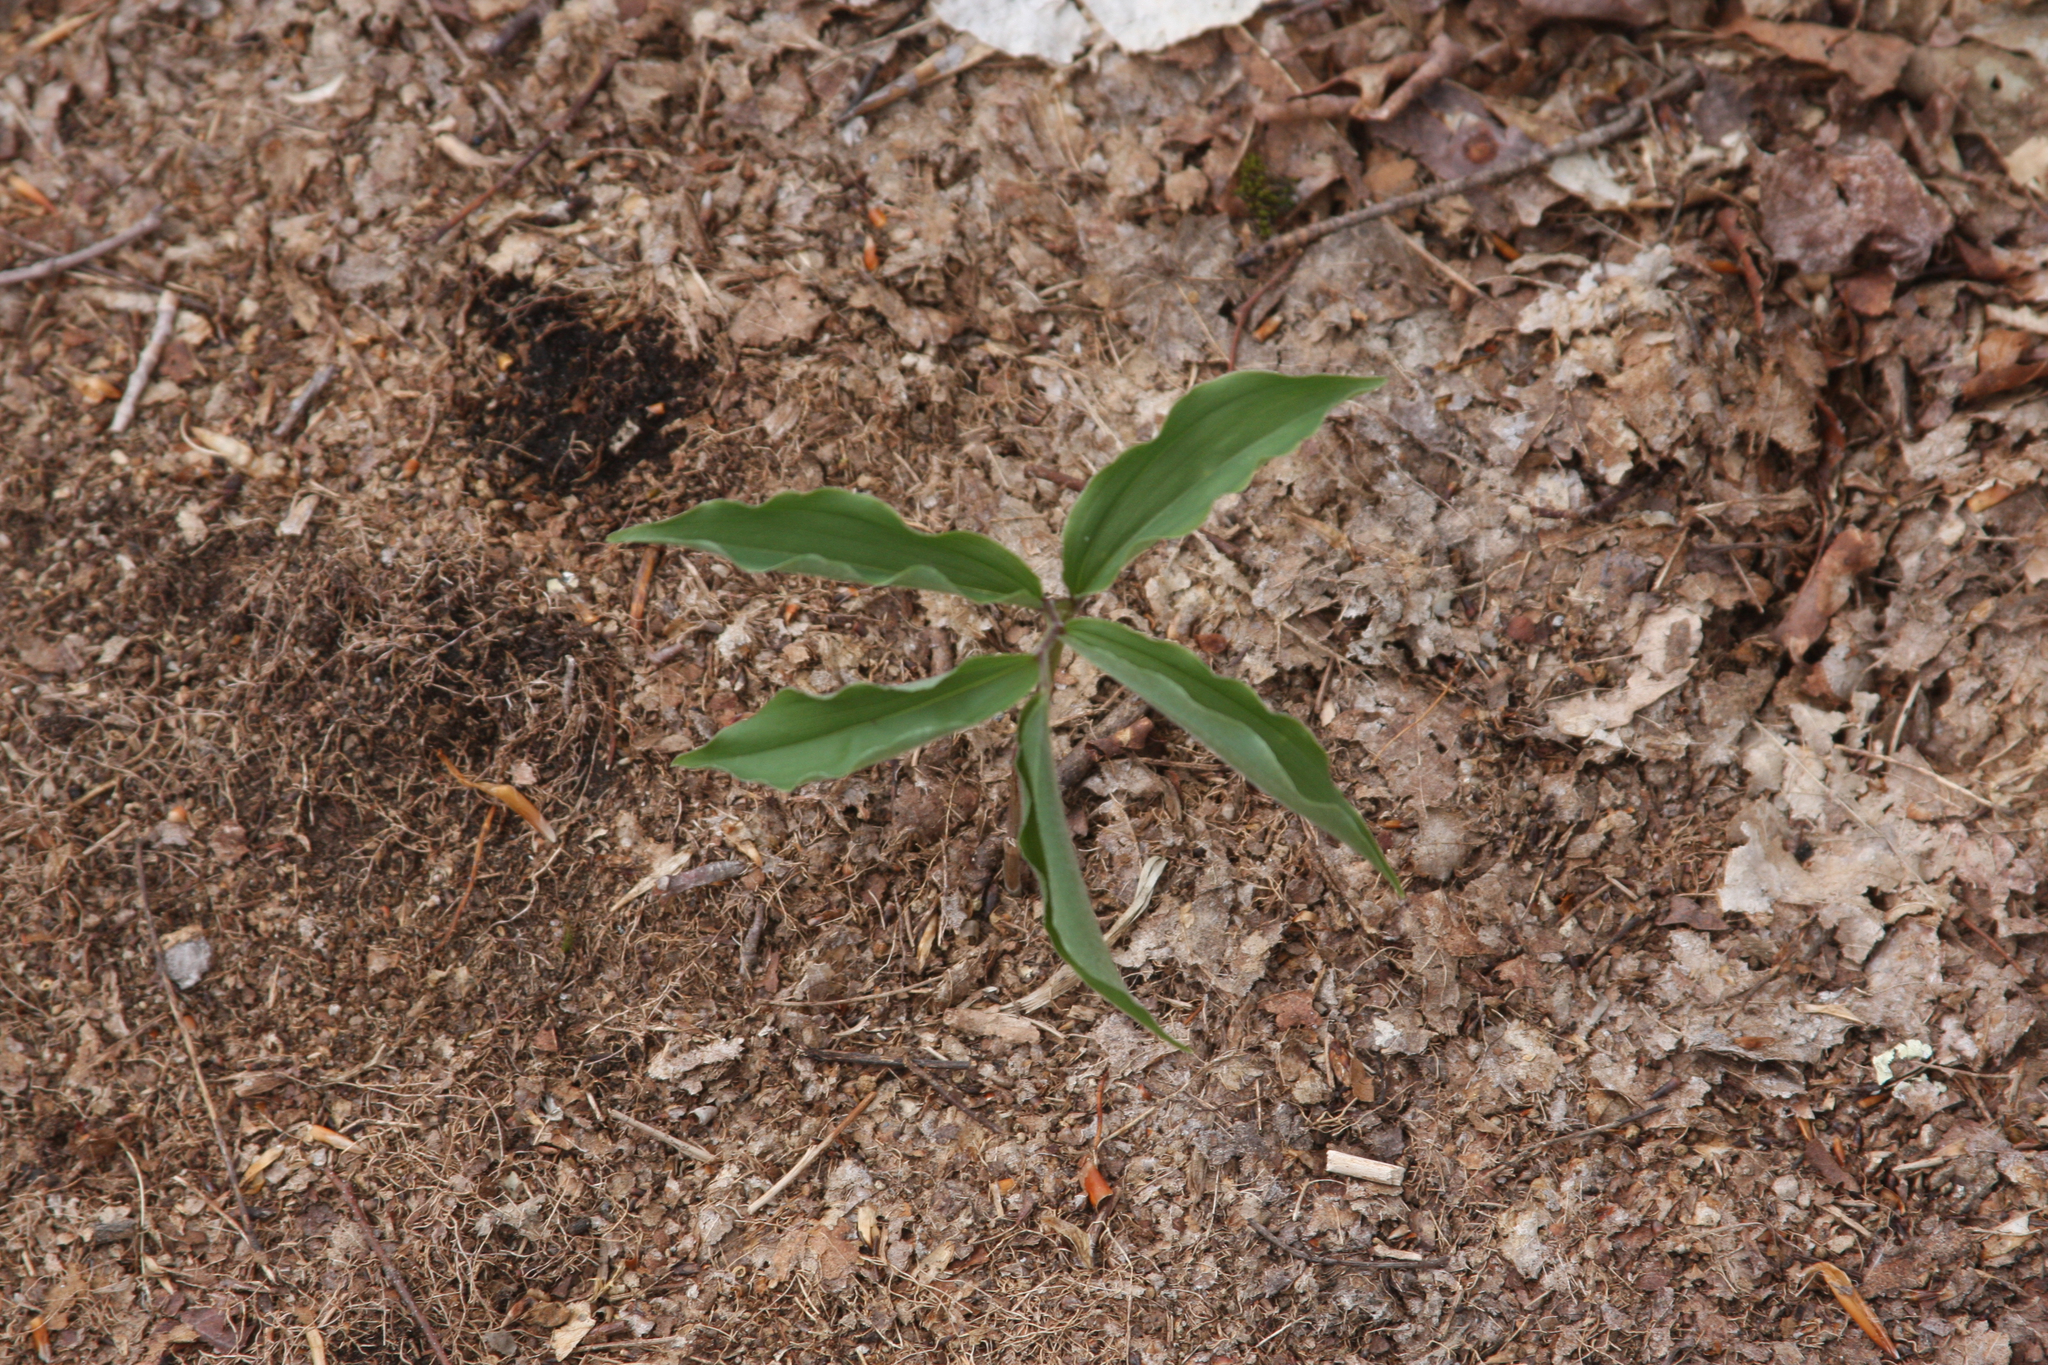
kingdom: Plantae
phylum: Tracheophyta
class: Liliopsida
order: Asparagales
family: Asparagaceae
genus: Maianthemum
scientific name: Maianthemum racemosum
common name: False spikenard
